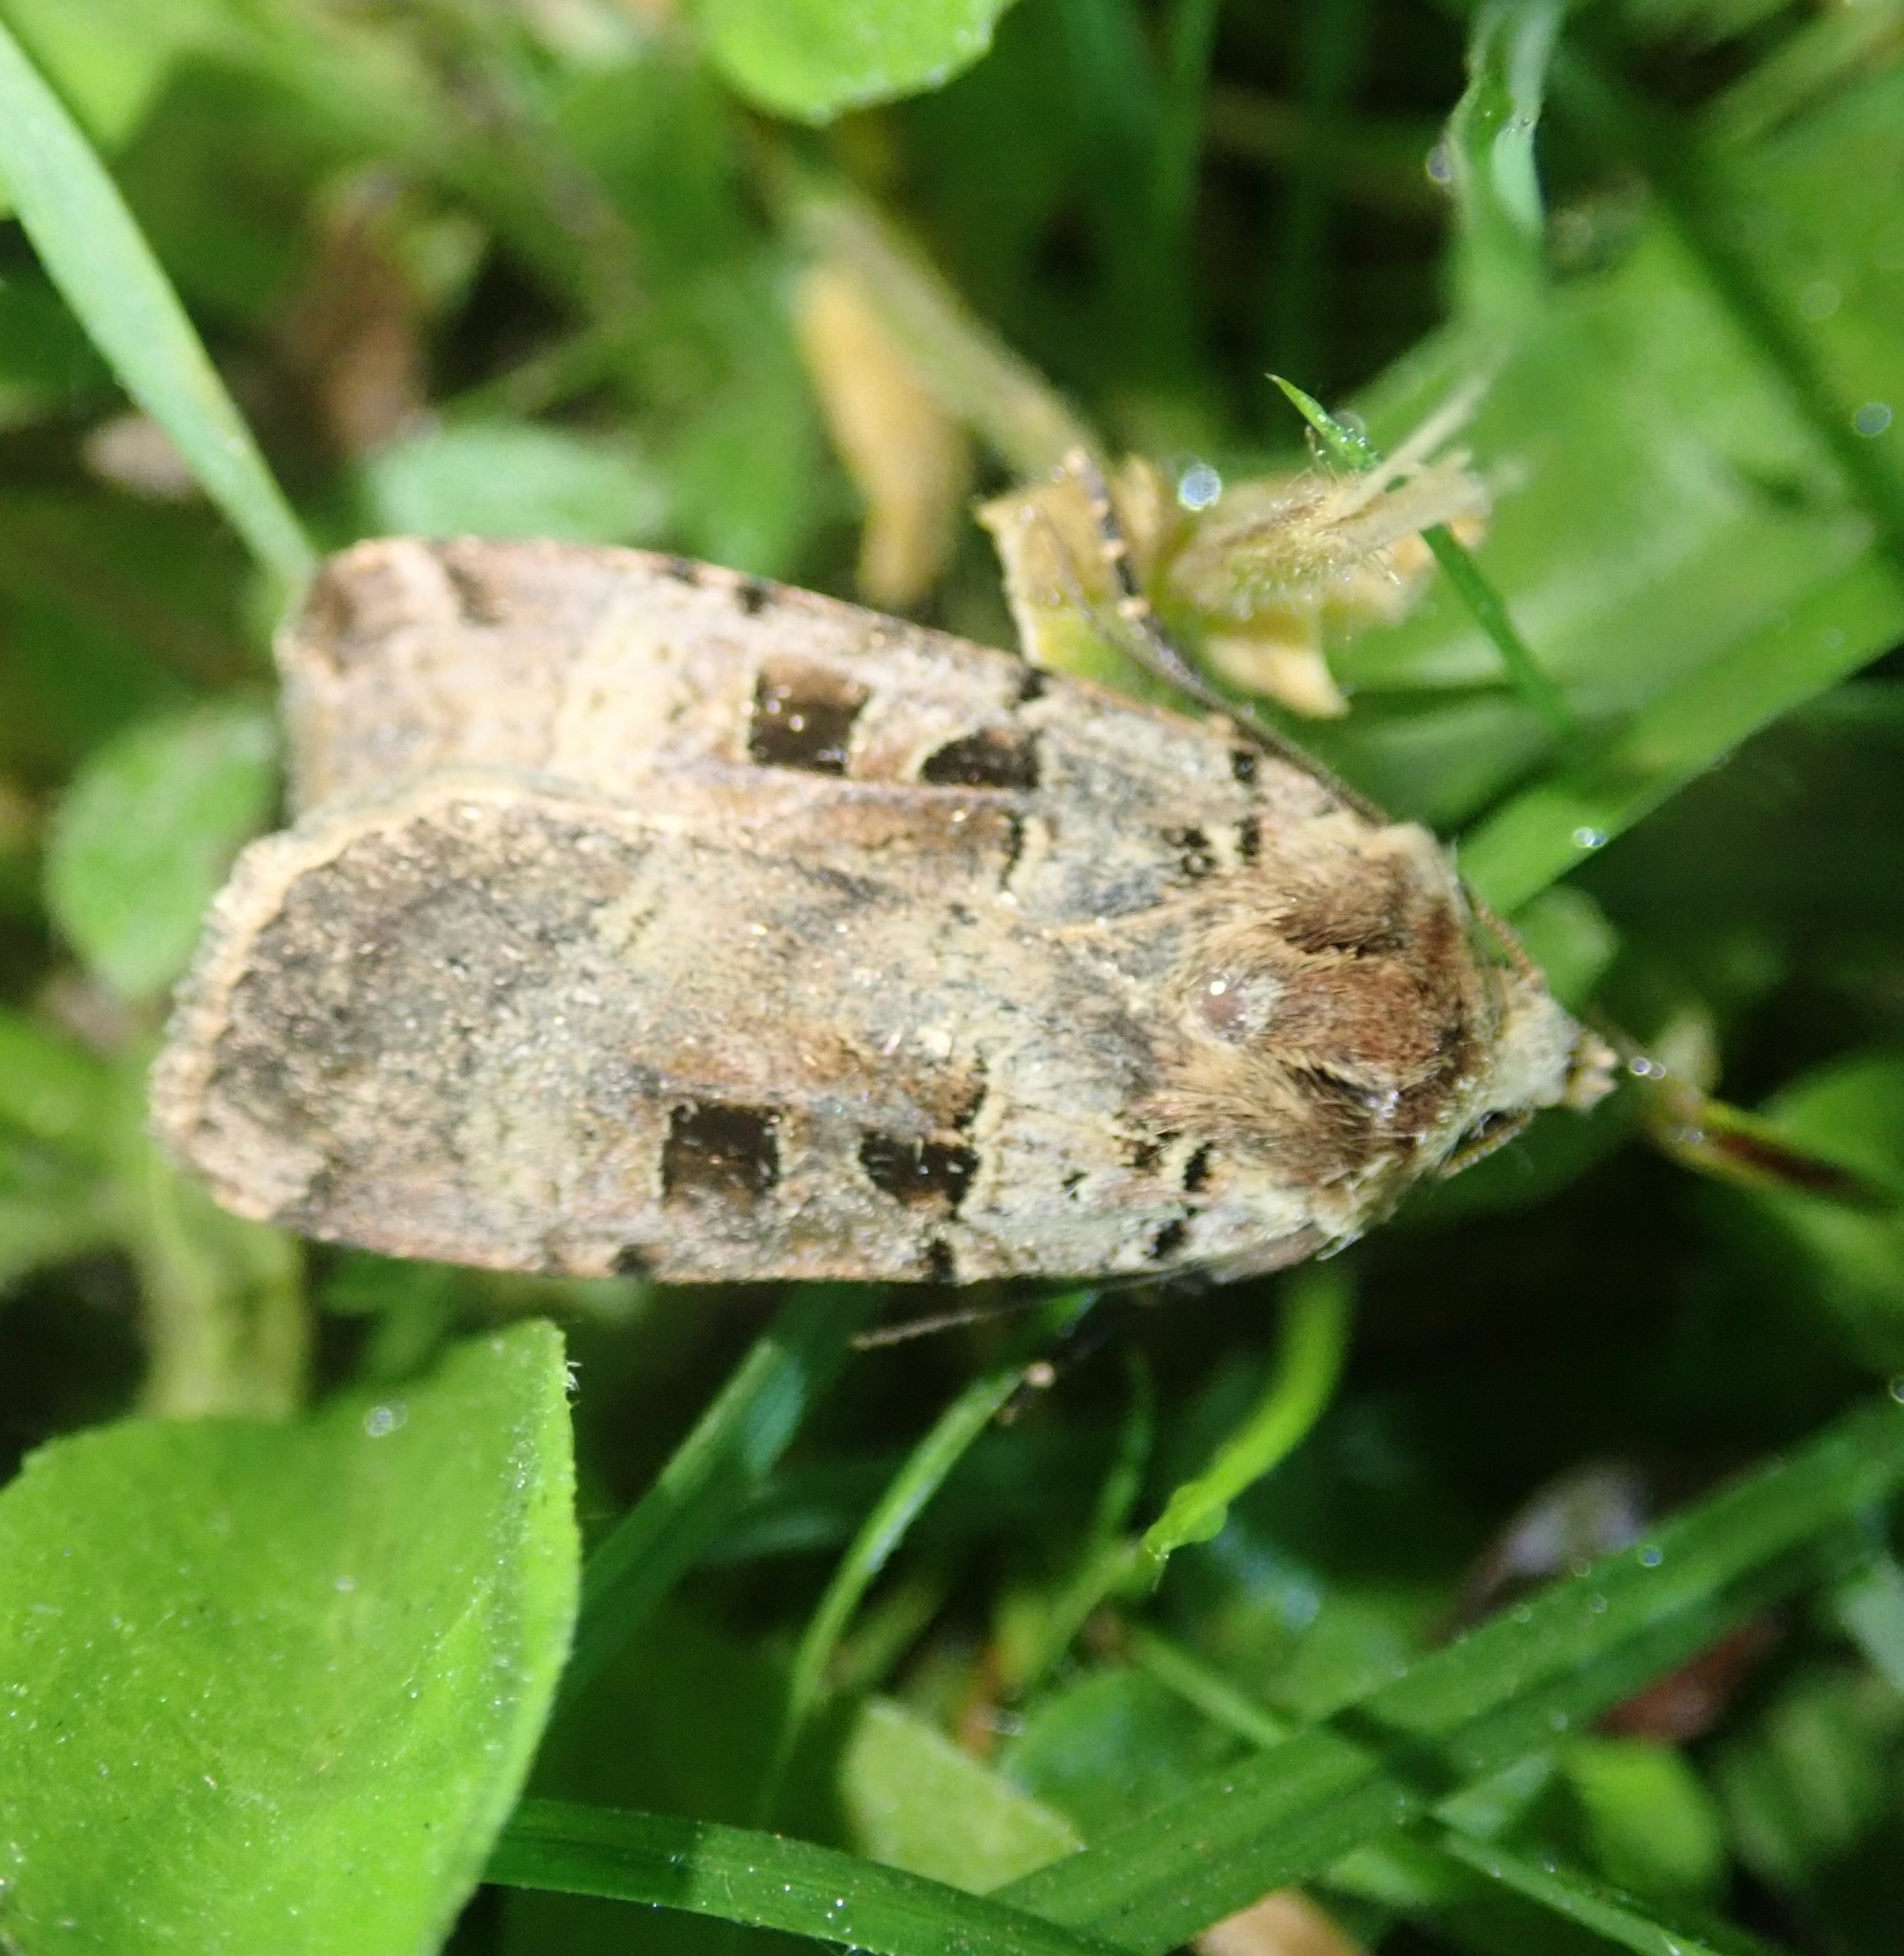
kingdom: Animalia
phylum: Arthropoda
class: Insecta
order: Lepidoptera
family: Noctuidae
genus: Xestia
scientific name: Xestia triangulum
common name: Double square-spot
